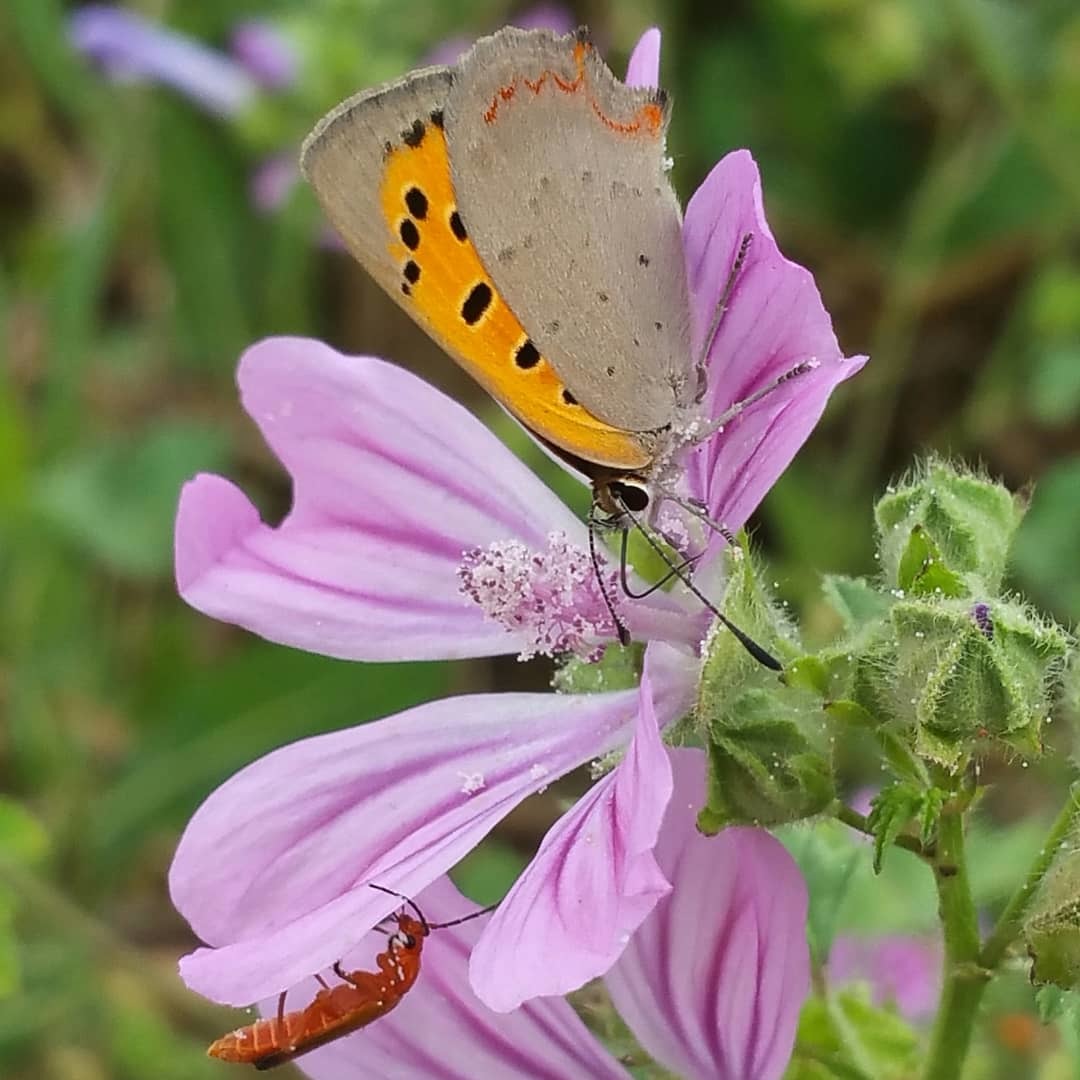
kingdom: Animalia
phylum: Arthropoda
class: Insecta
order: Lepidoptera
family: Lycaenidae
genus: Lycaena
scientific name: Lycaena phlaeas
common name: Small copper
